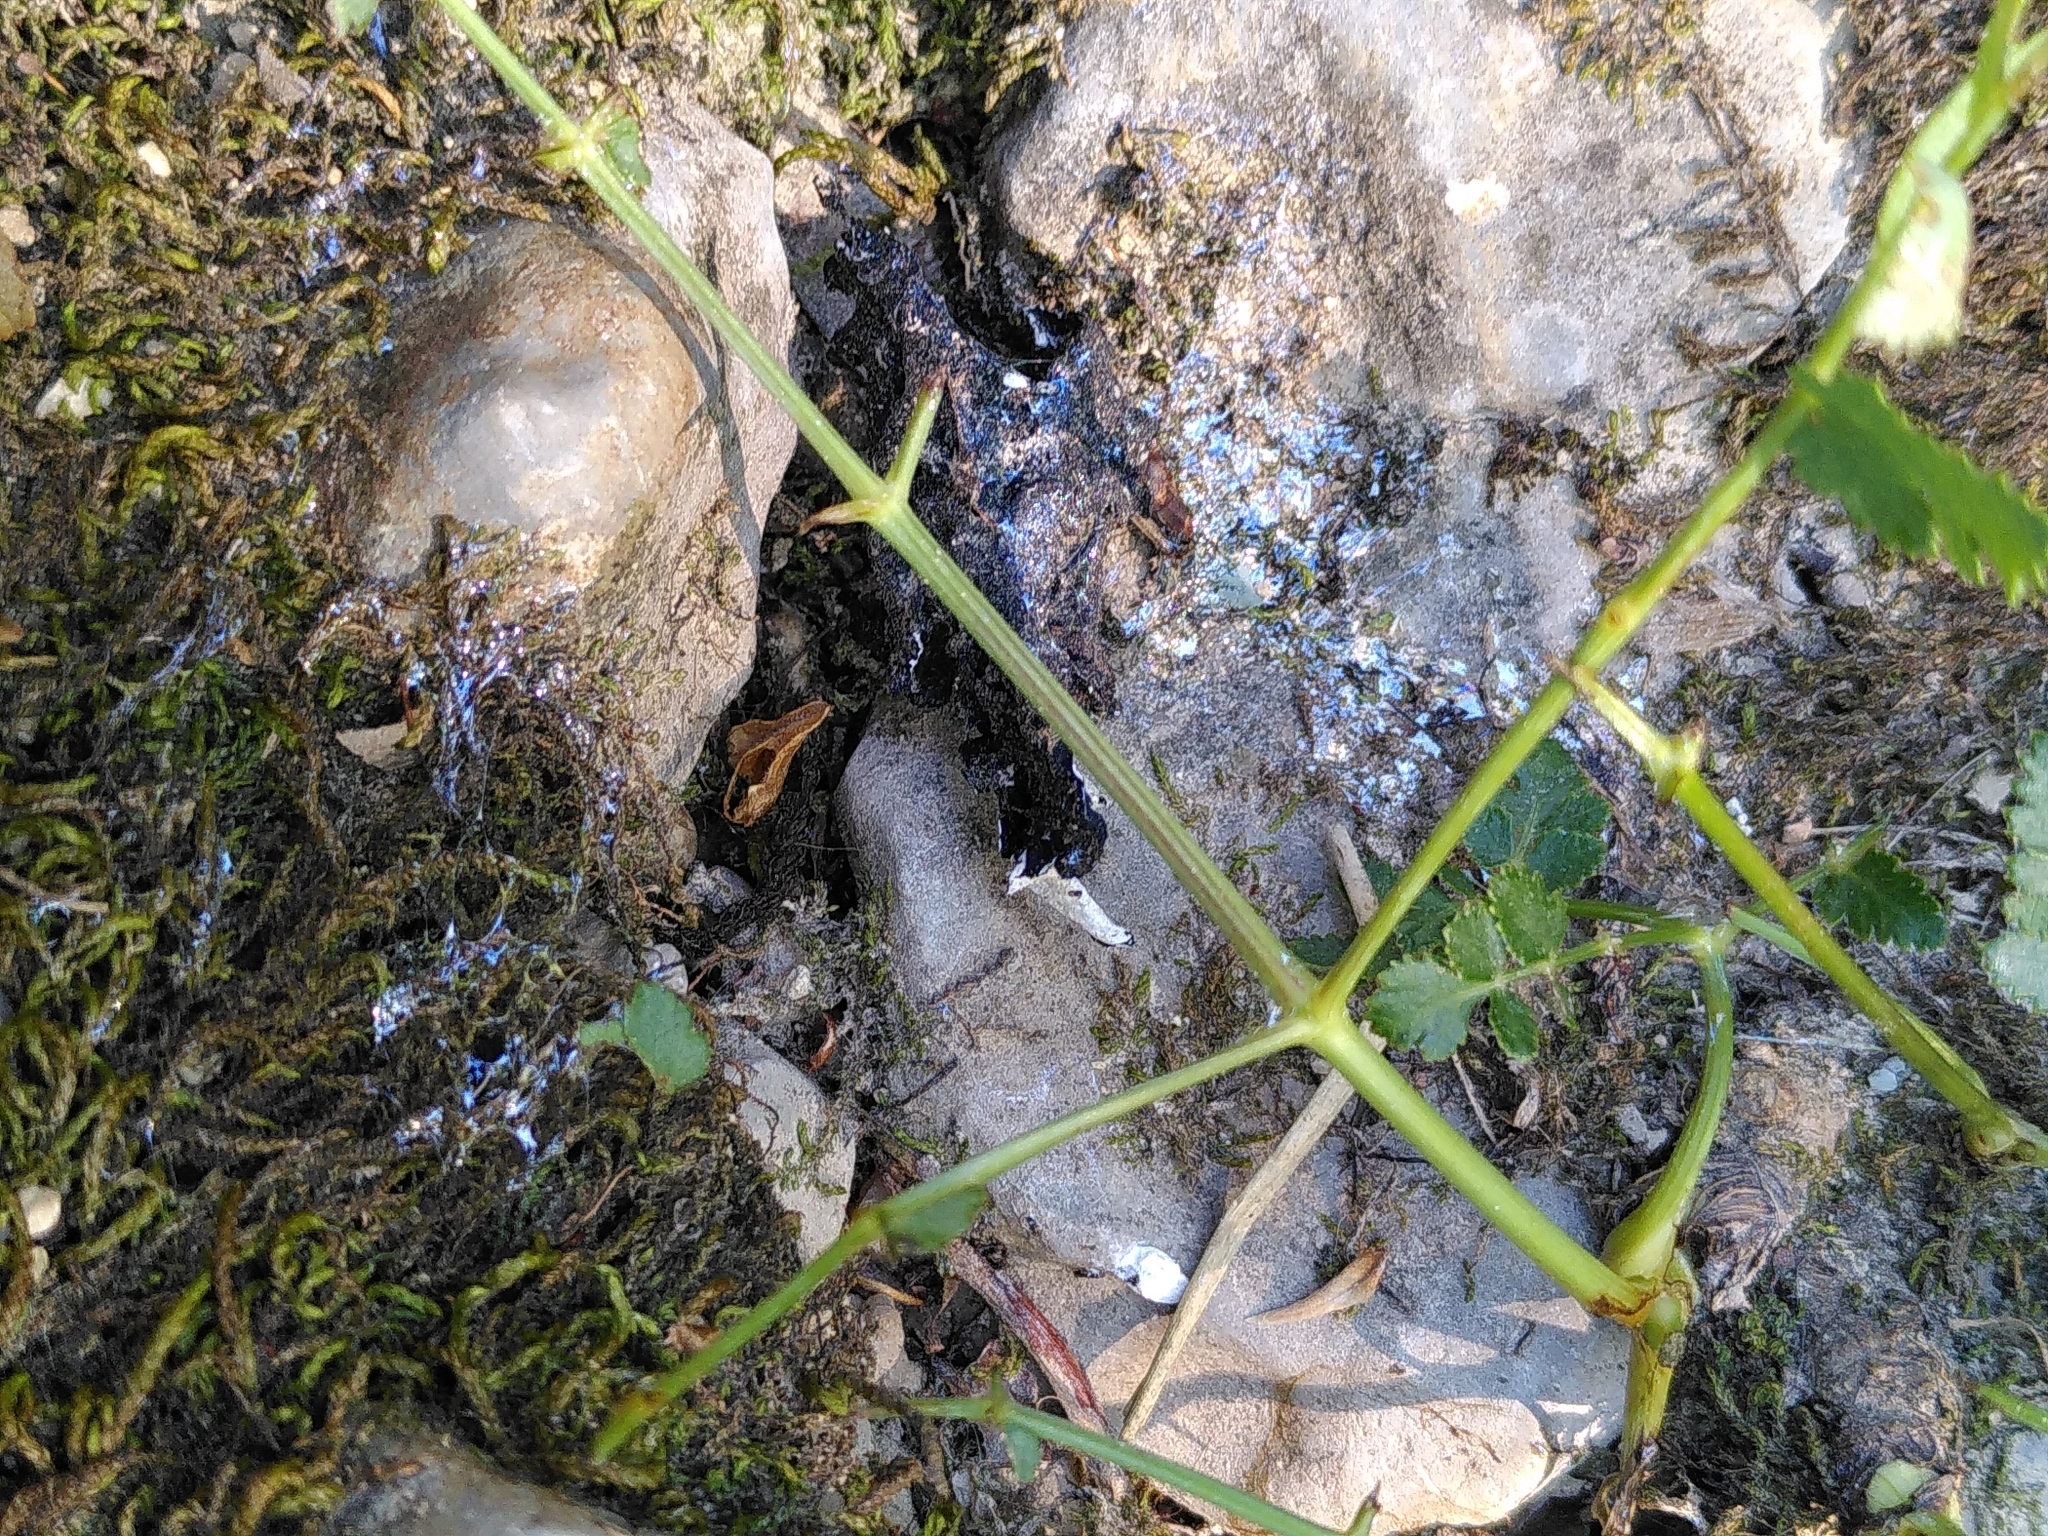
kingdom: Animalia
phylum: Chordata
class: Mammalia
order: Carnivora
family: Mustelidae
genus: Lutra
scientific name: Lutra lutra
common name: European otter
